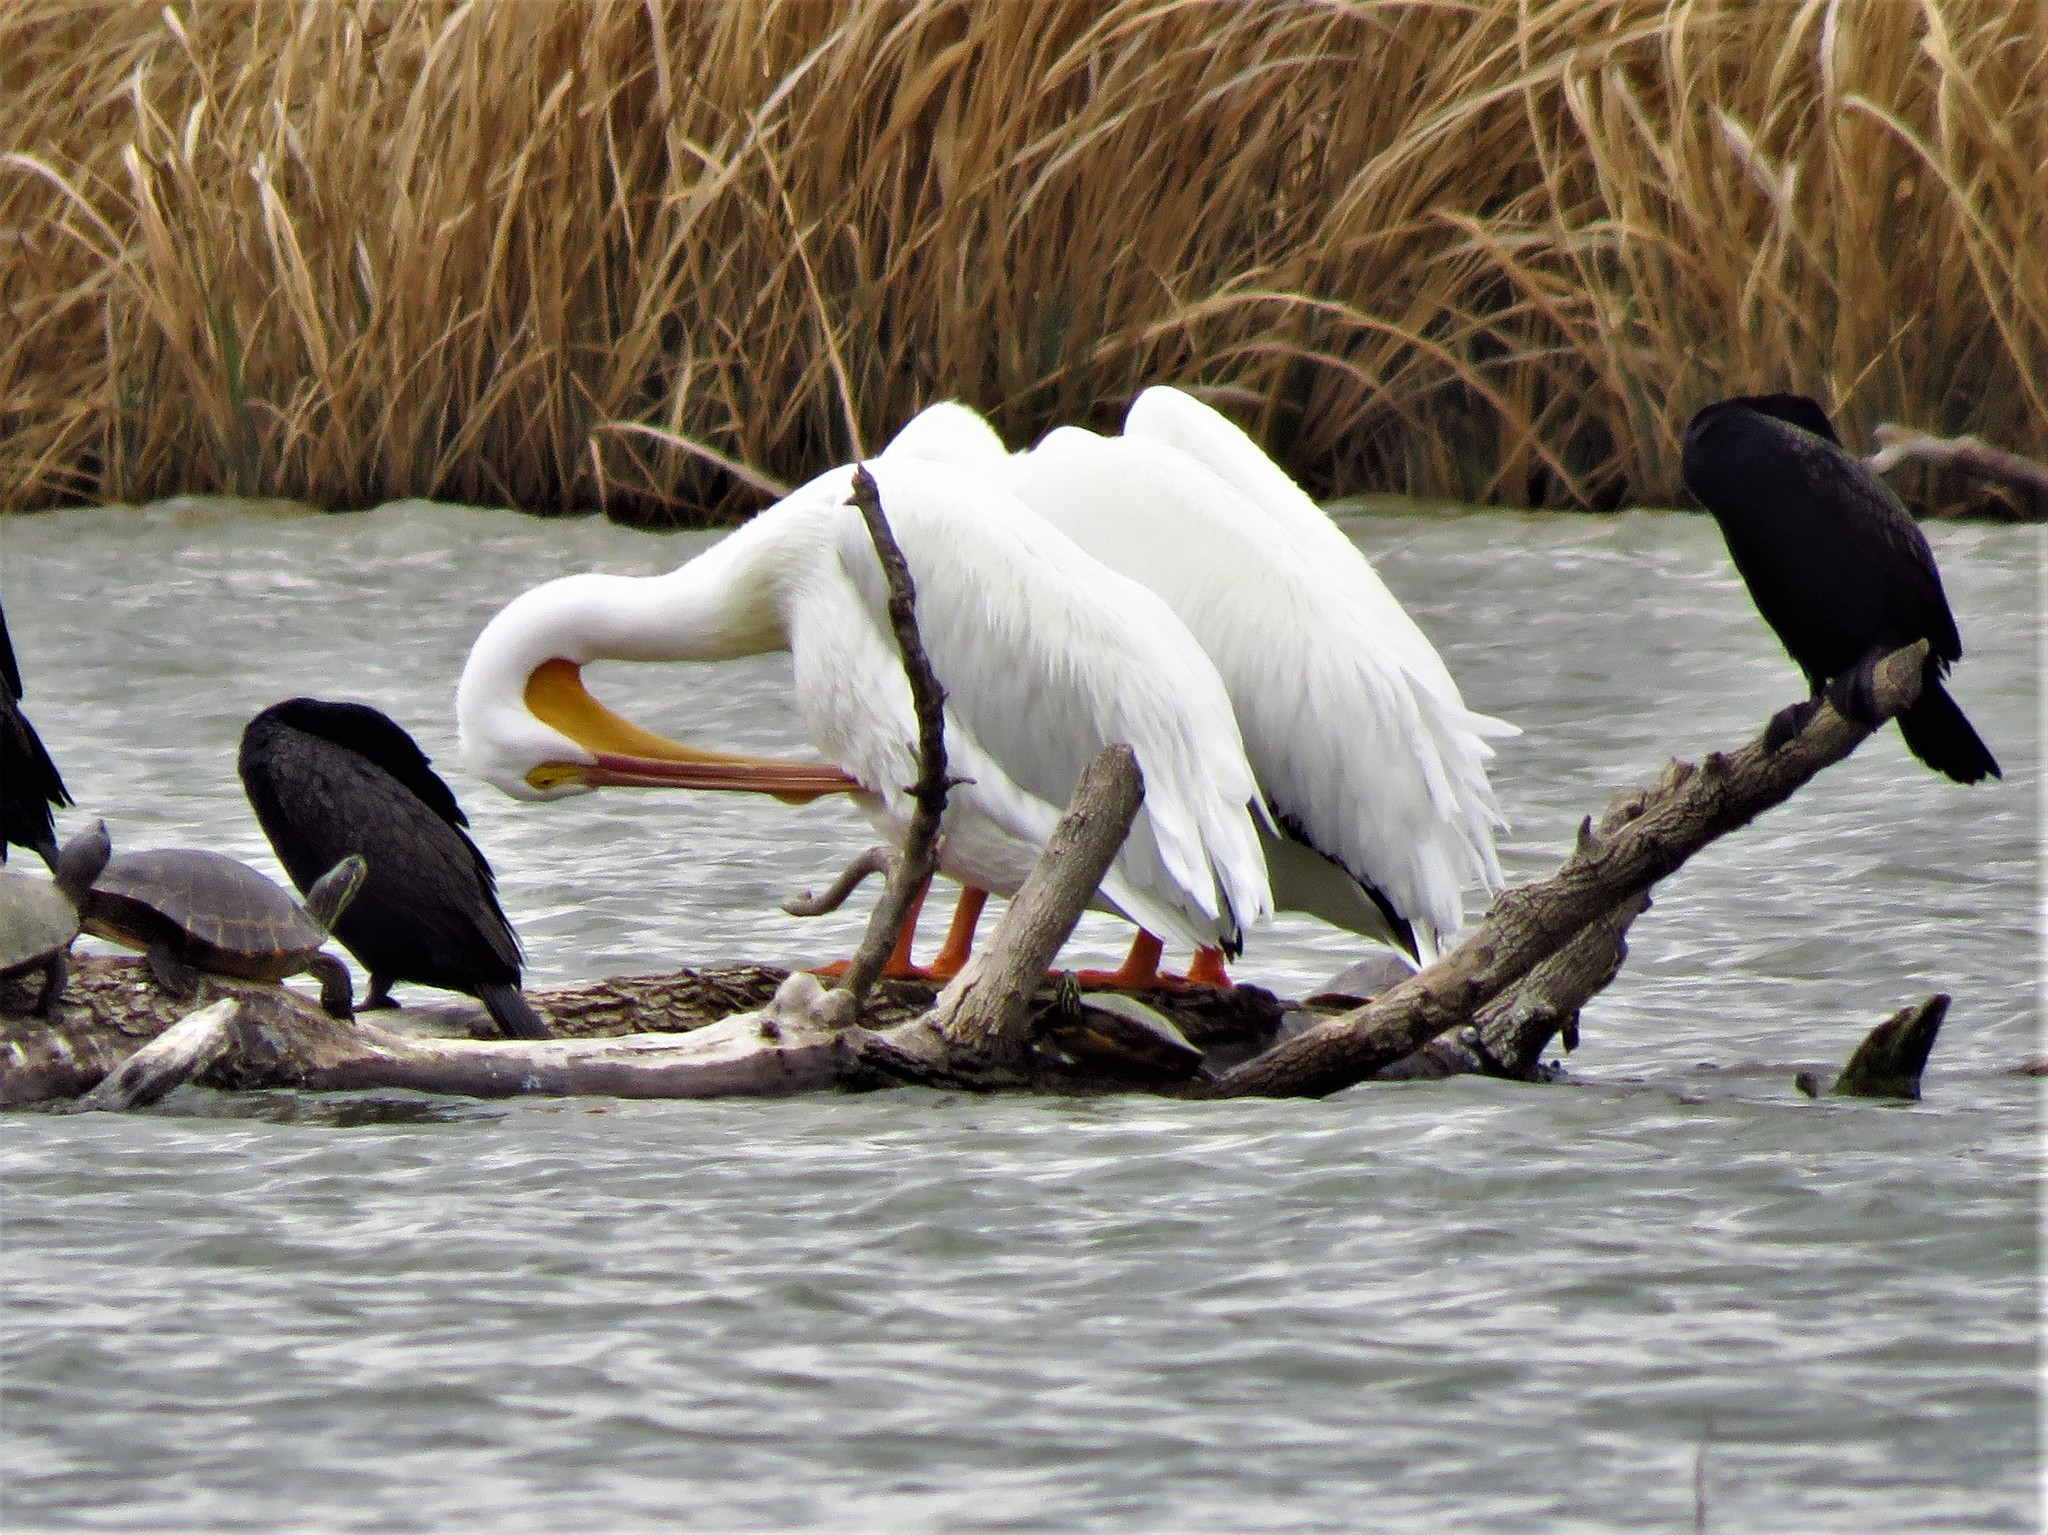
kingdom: Animalia
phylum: Chordata
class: Aves
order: Pelecaniformes
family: Pelecanidae
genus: Pelecanus
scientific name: Pelecanus erythrorhynchos
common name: American white pelican
